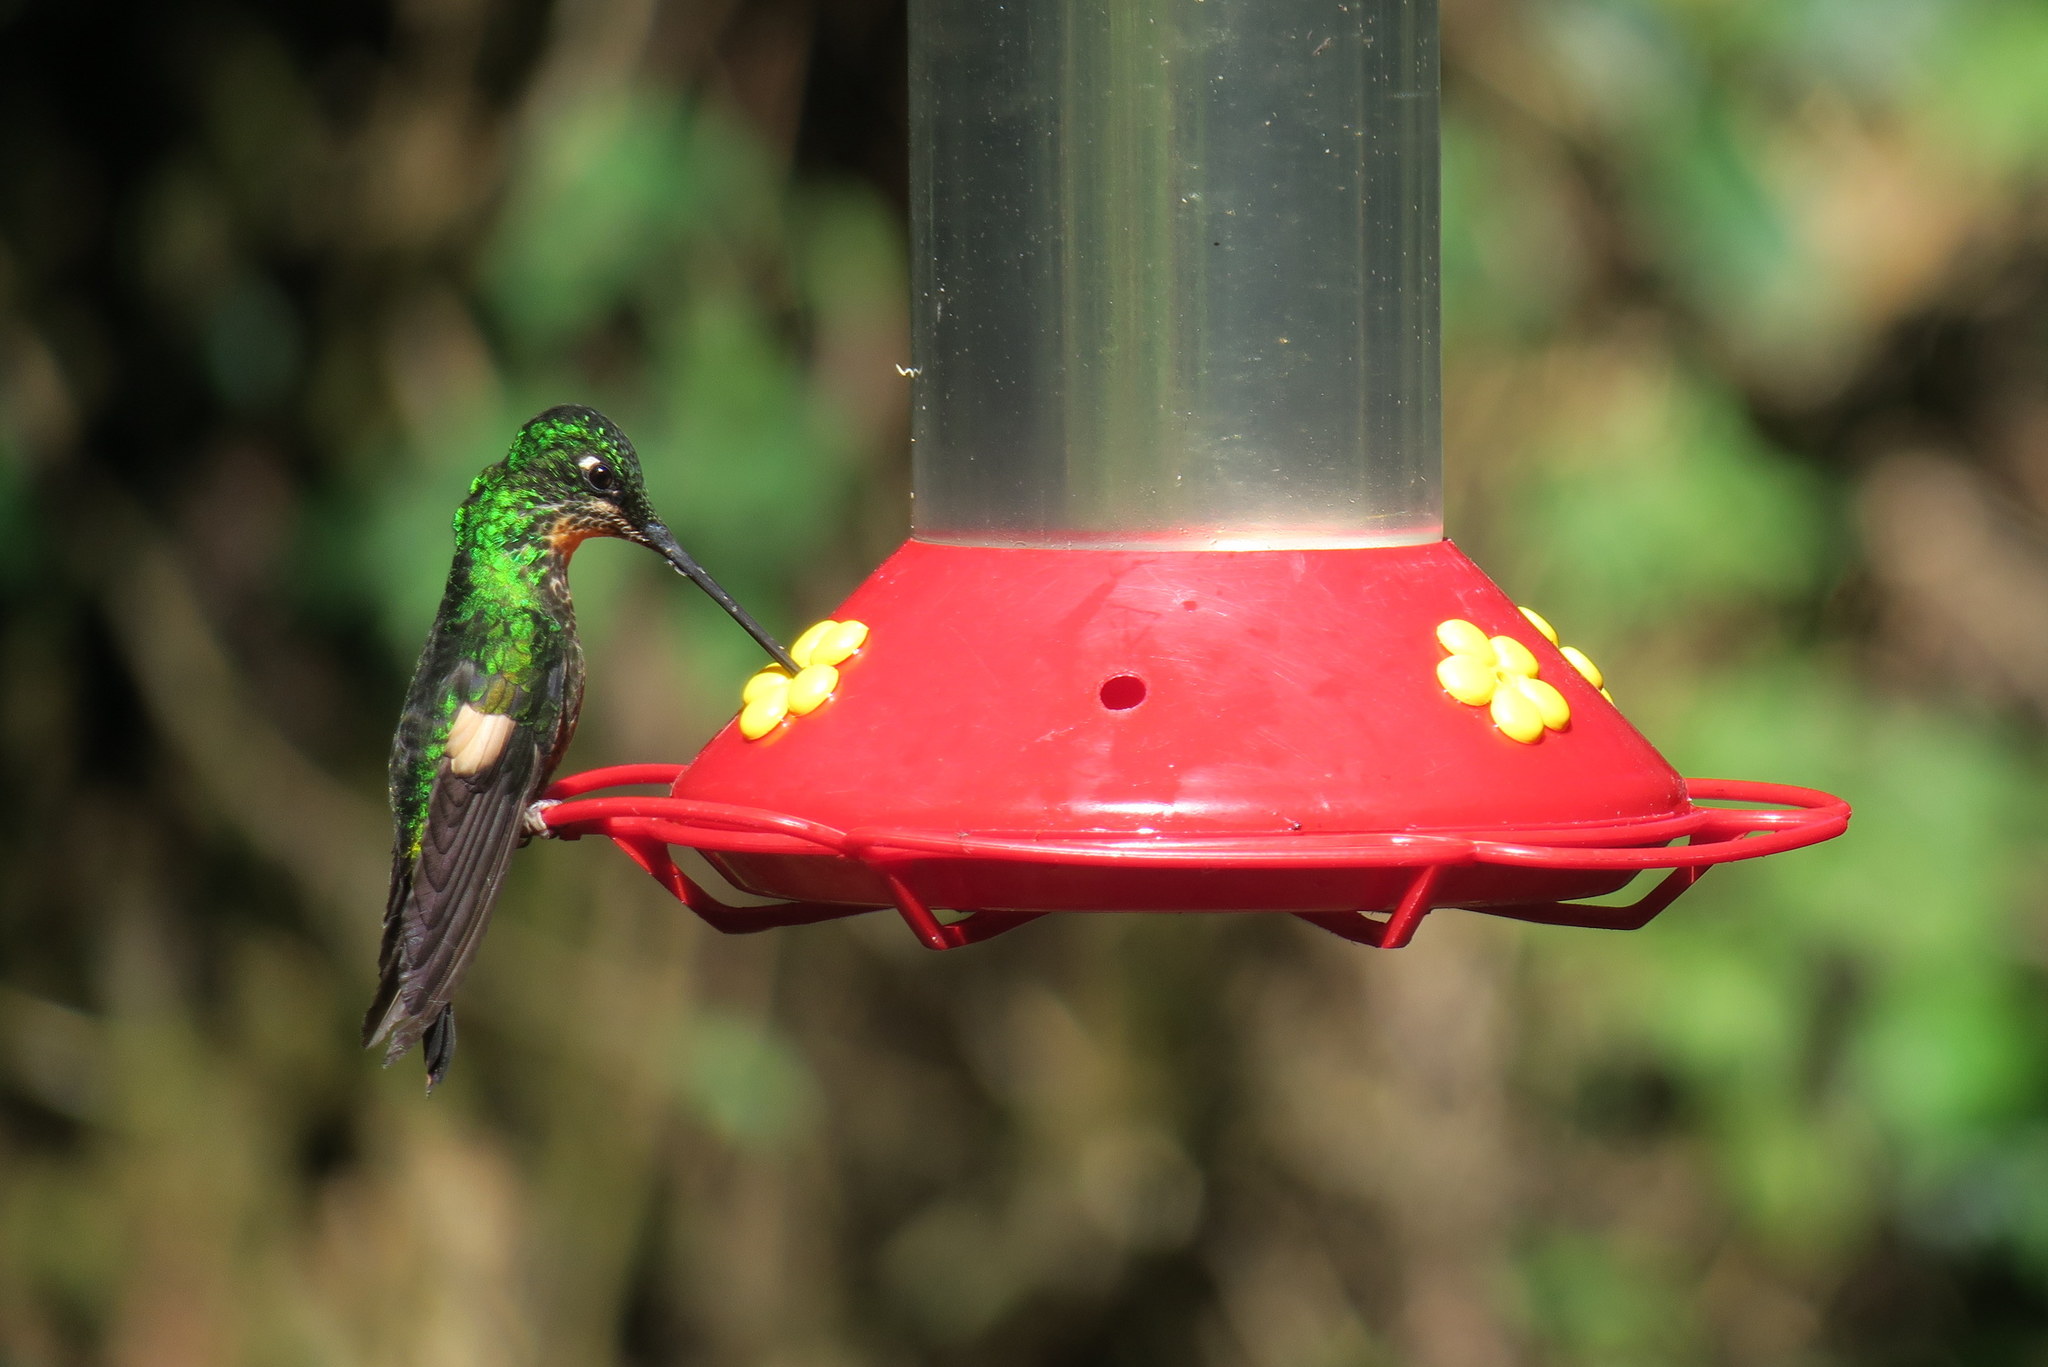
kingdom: Animalia
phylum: Chordata
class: Aves
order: Apodiformes
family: Trochilidae
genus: Coeligena
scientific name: Coeligena lutetiae
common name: Buff-winged starfrontlet
